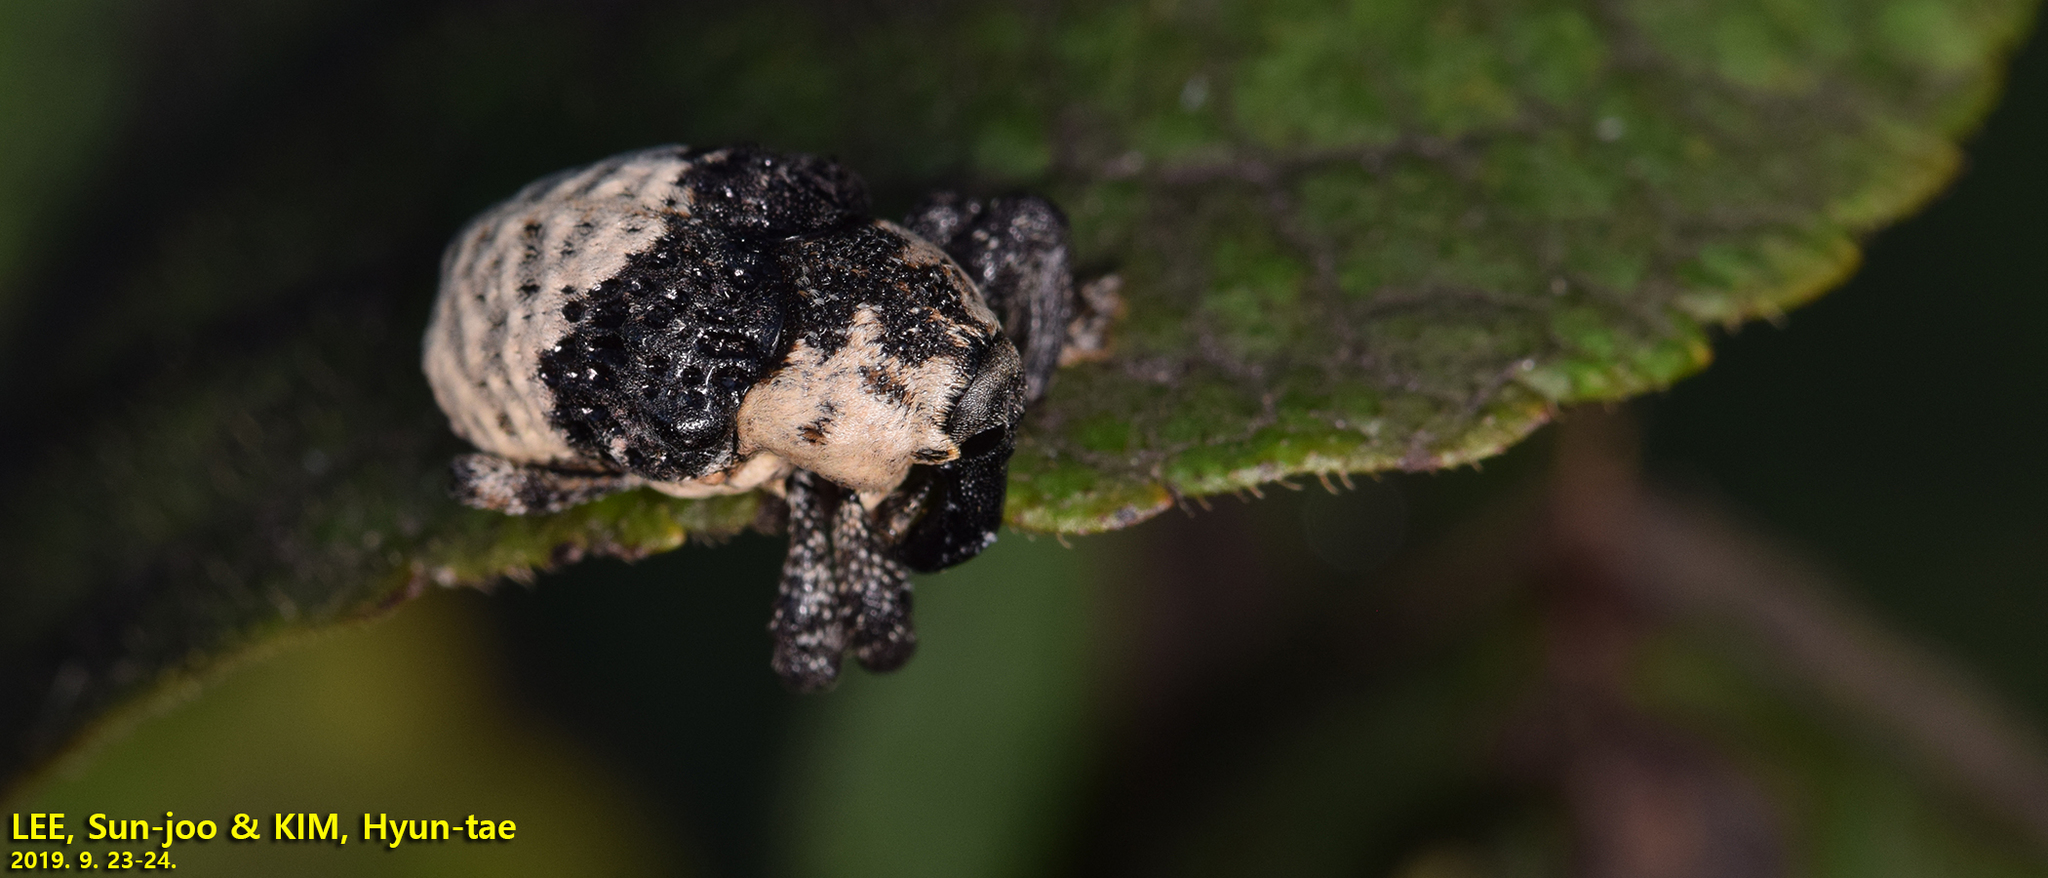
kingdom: Animalia
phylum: Arthropoda
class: Insecta
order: Coleoptera
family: Curculionidae
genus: Alcides
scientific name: Alcides trifidus
